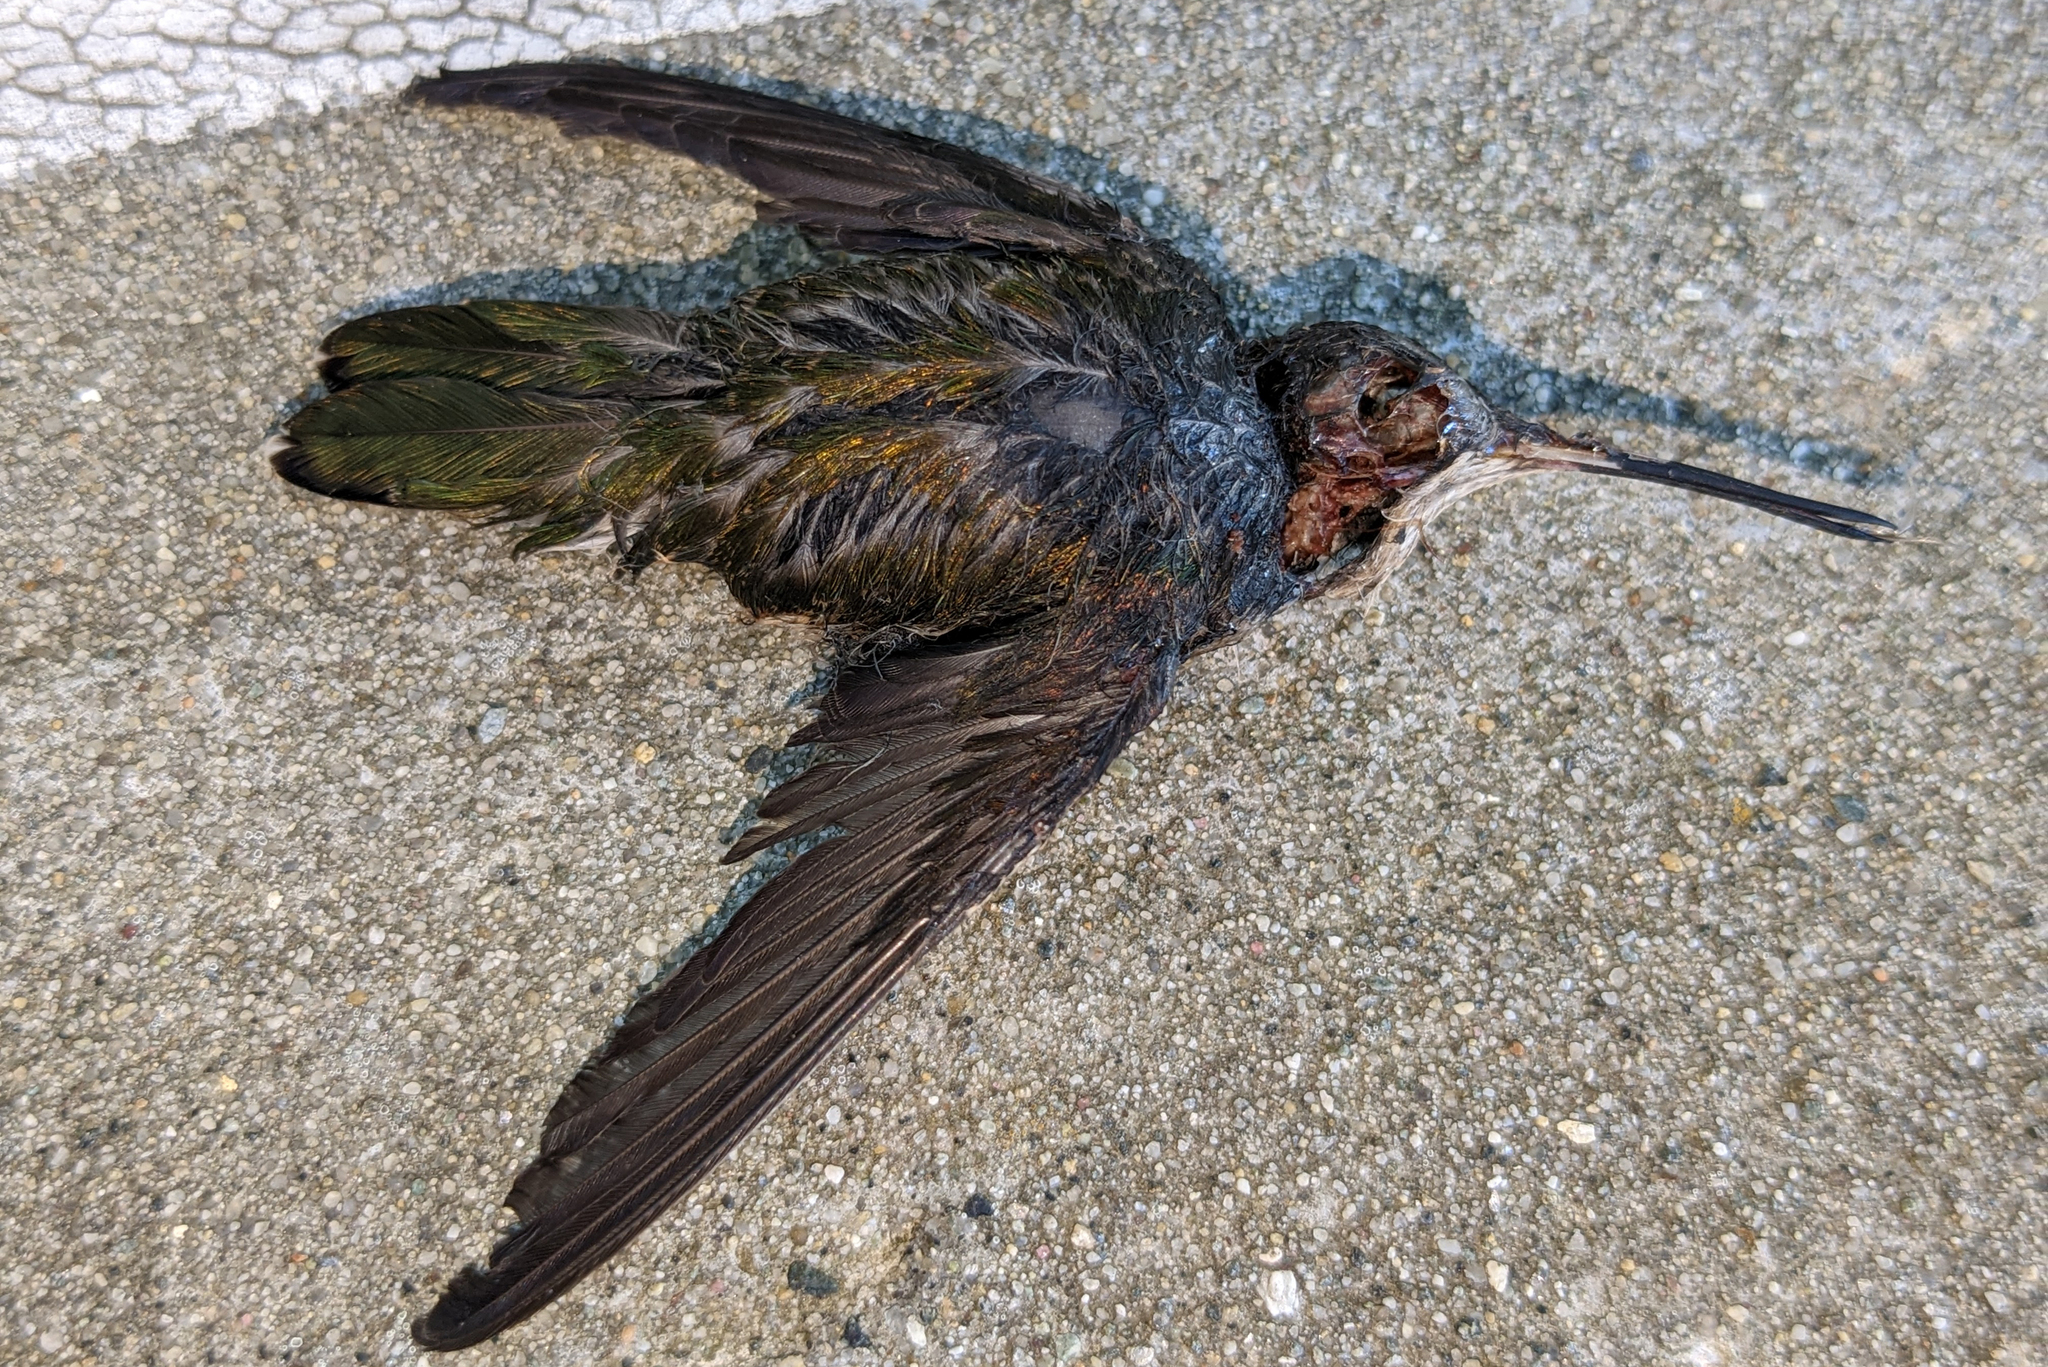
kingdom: Animalia
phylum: Chordata
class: Aves
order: Apodiformes
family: Trochilidae
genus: Archilochus
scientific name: Archilochus colubris
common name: Ruby-throated hummingbird
